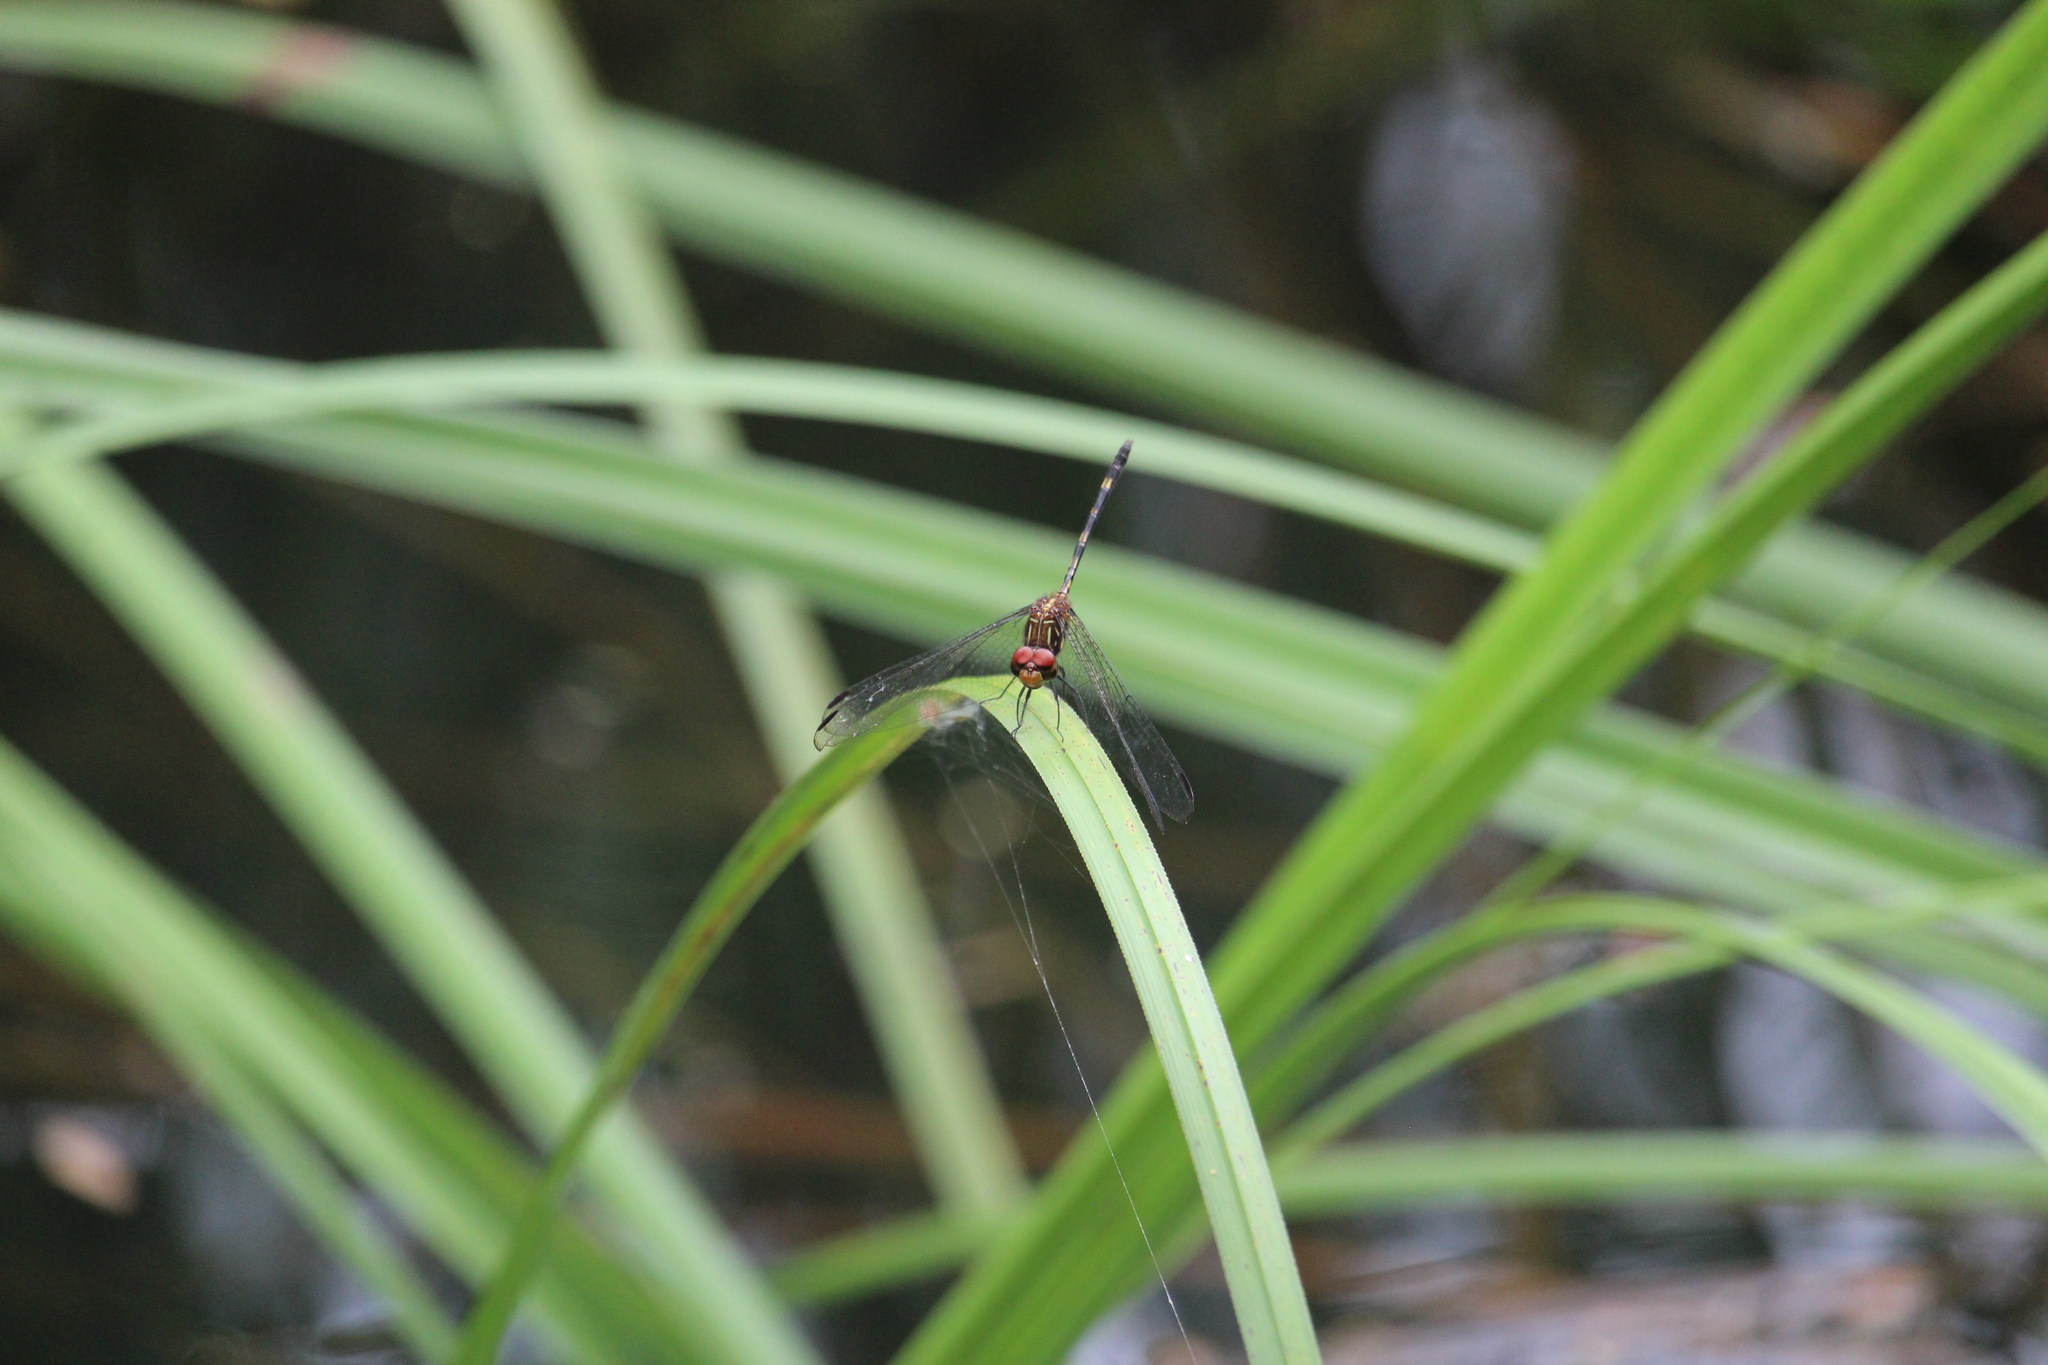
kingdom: Animalia
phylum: Arthropoda
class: Insecta
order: Odonata
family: Libellulidae
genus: Dythemis
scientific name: Dythemis sterilis
